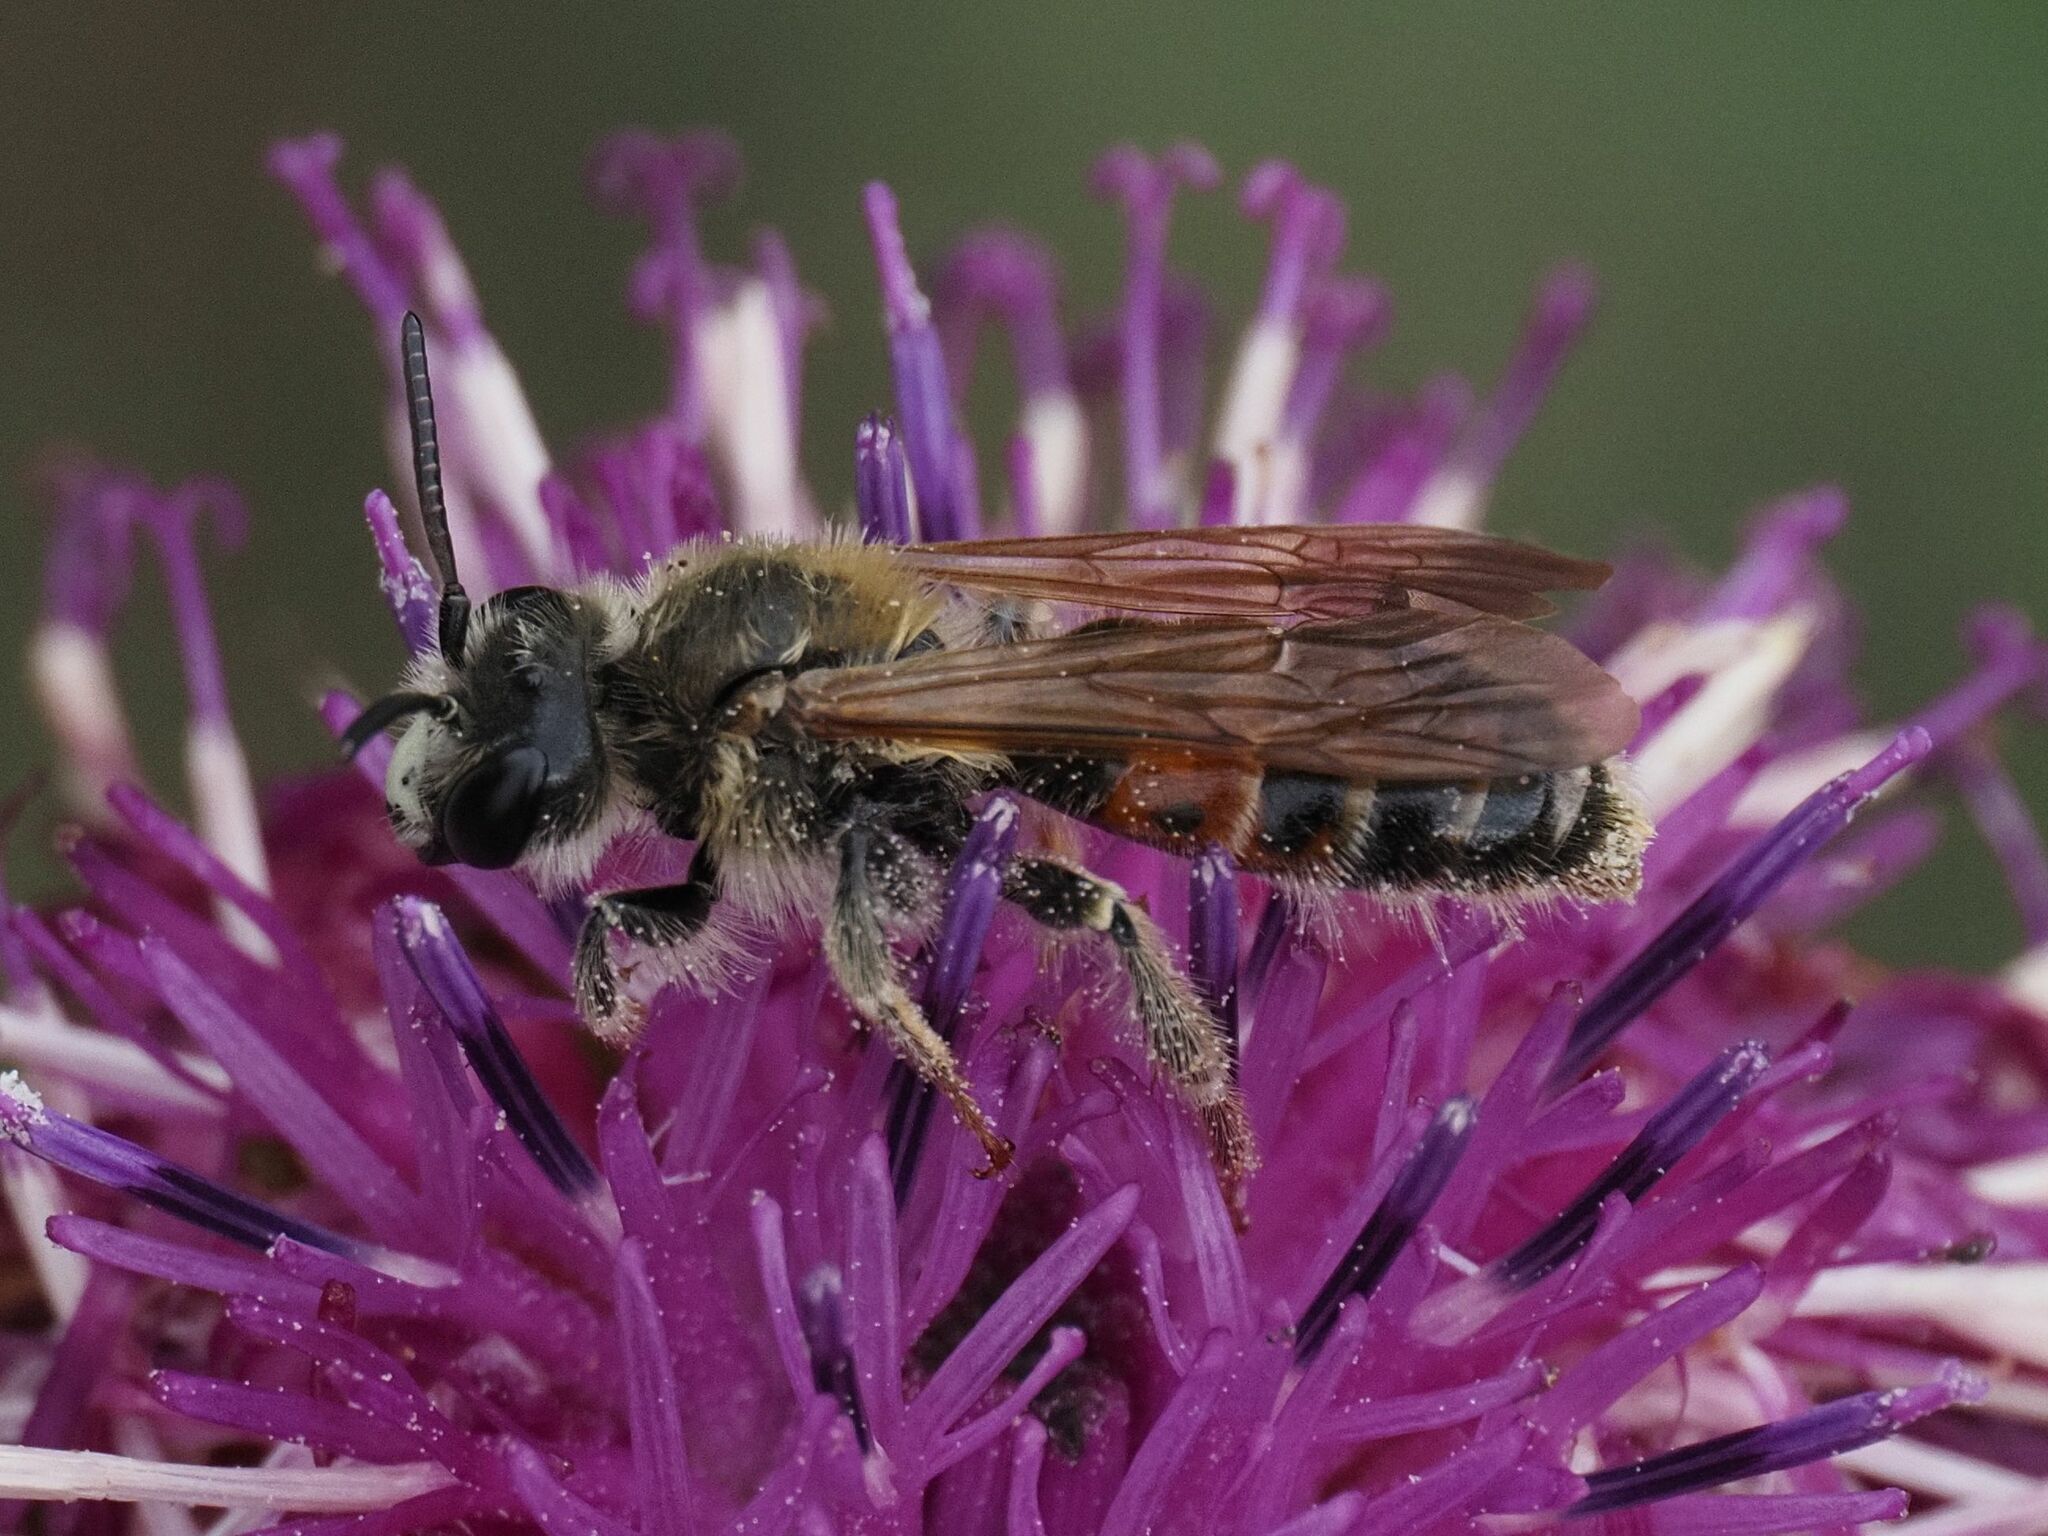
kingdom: Animalia
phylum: Arthropoda
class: Insecta
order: Hymenoptera
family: Andrenidae
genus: Andrena
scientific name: Andrena hattorfiana
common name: Large scabious mining bee
